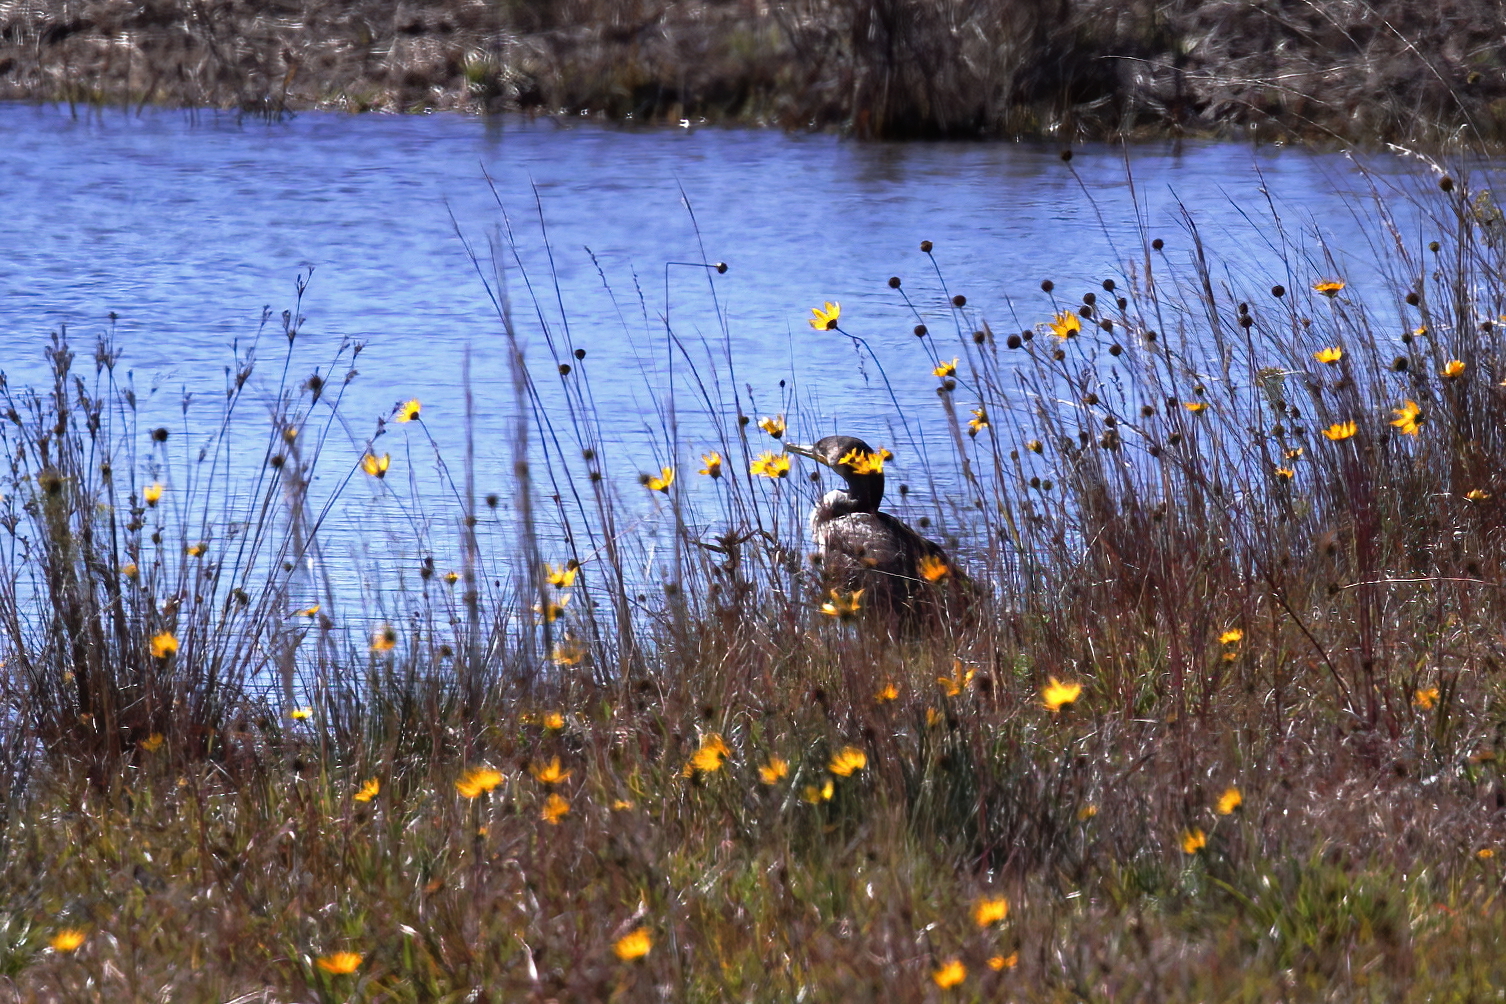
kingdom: Animalia
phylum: Chordata
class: Aves
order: Suliformes
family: Phalacrocoracidae
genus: Phalacrocorax
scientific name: Phalacrocorax auritus
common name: Double-crested cormorant
